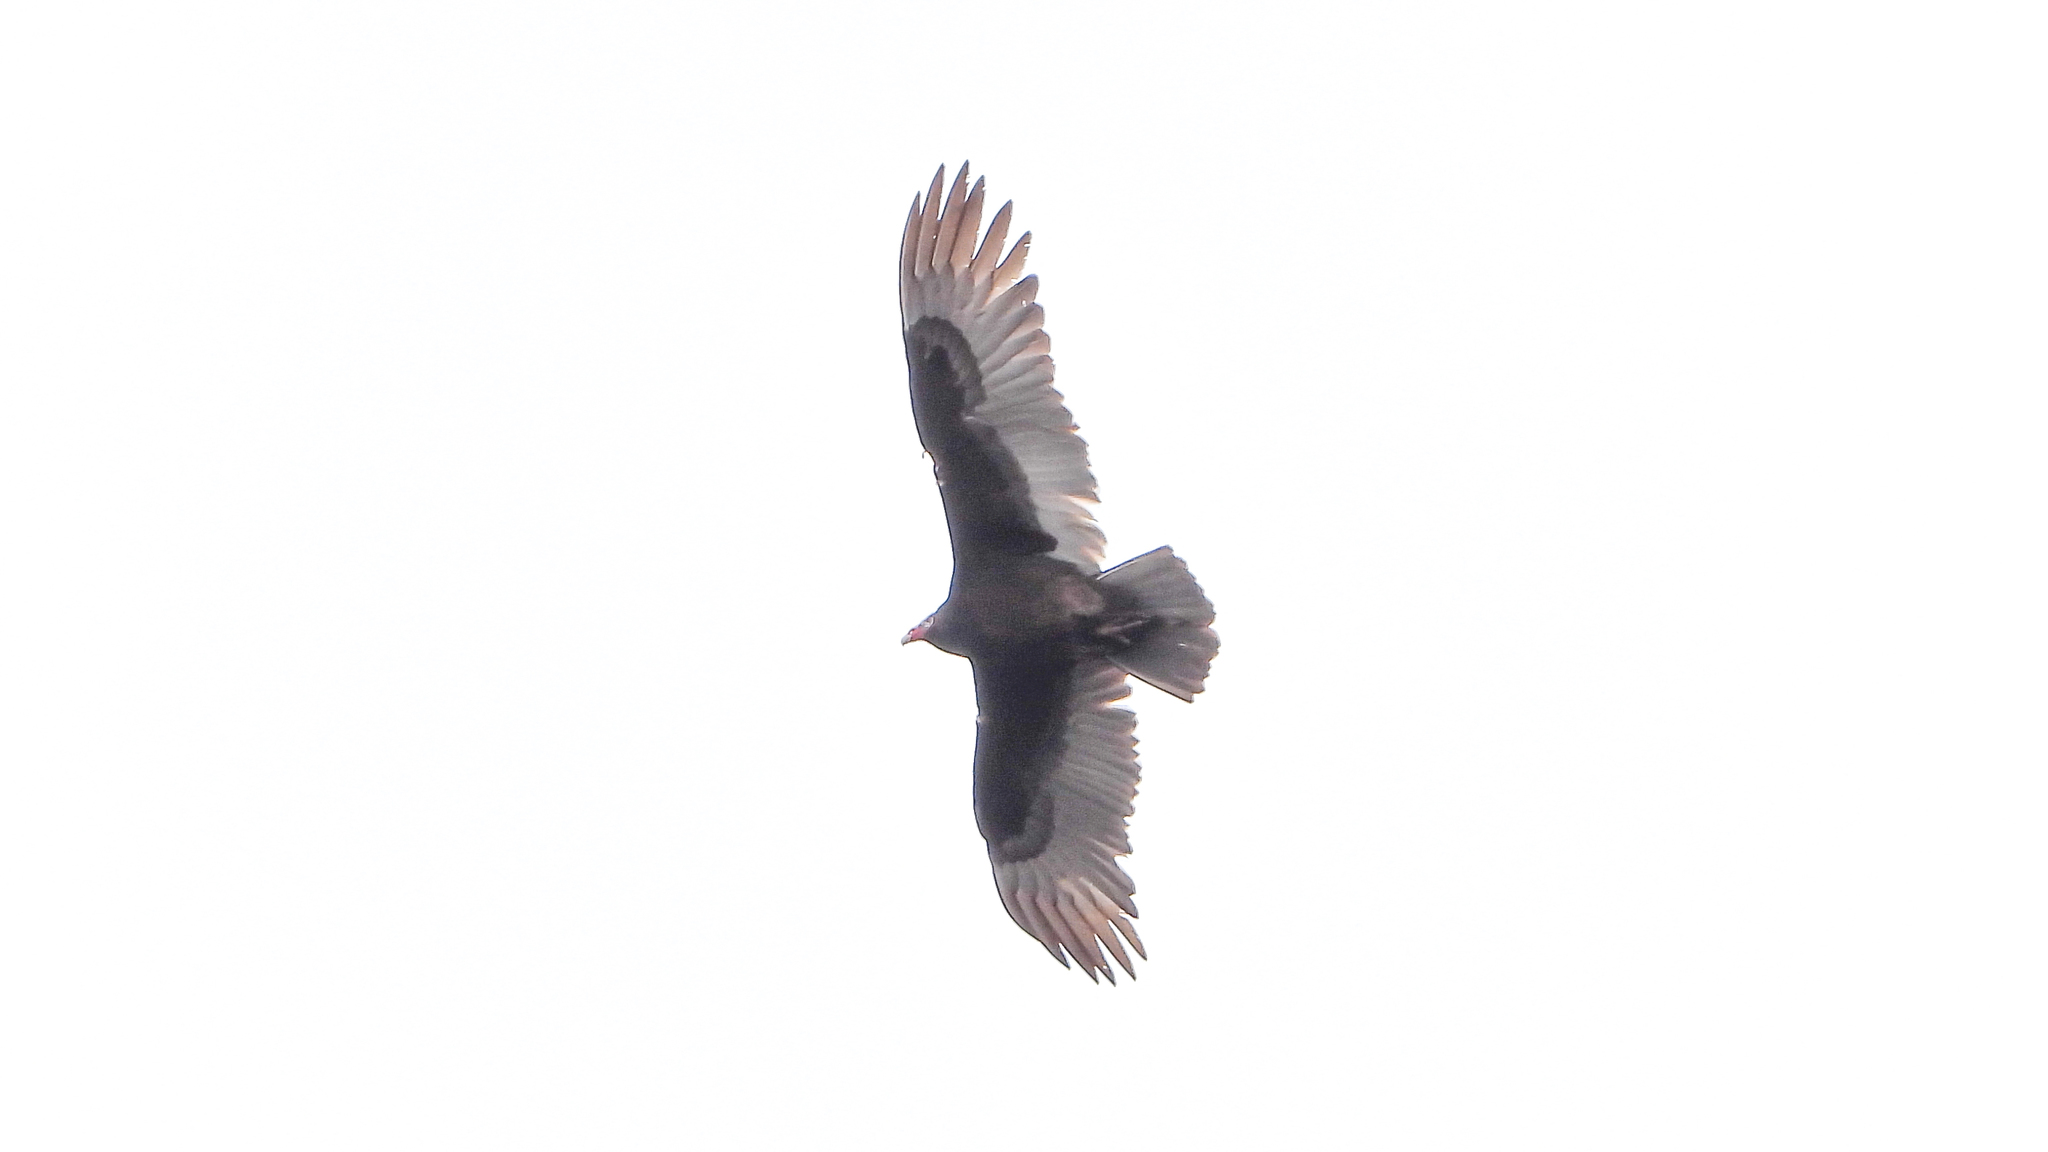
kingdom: Animalia
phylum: Chordata
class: Aves
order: Accipitriformes
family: Cathartidae
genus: Cathartes
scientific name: Cathartes aura
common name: Turkey vulture
